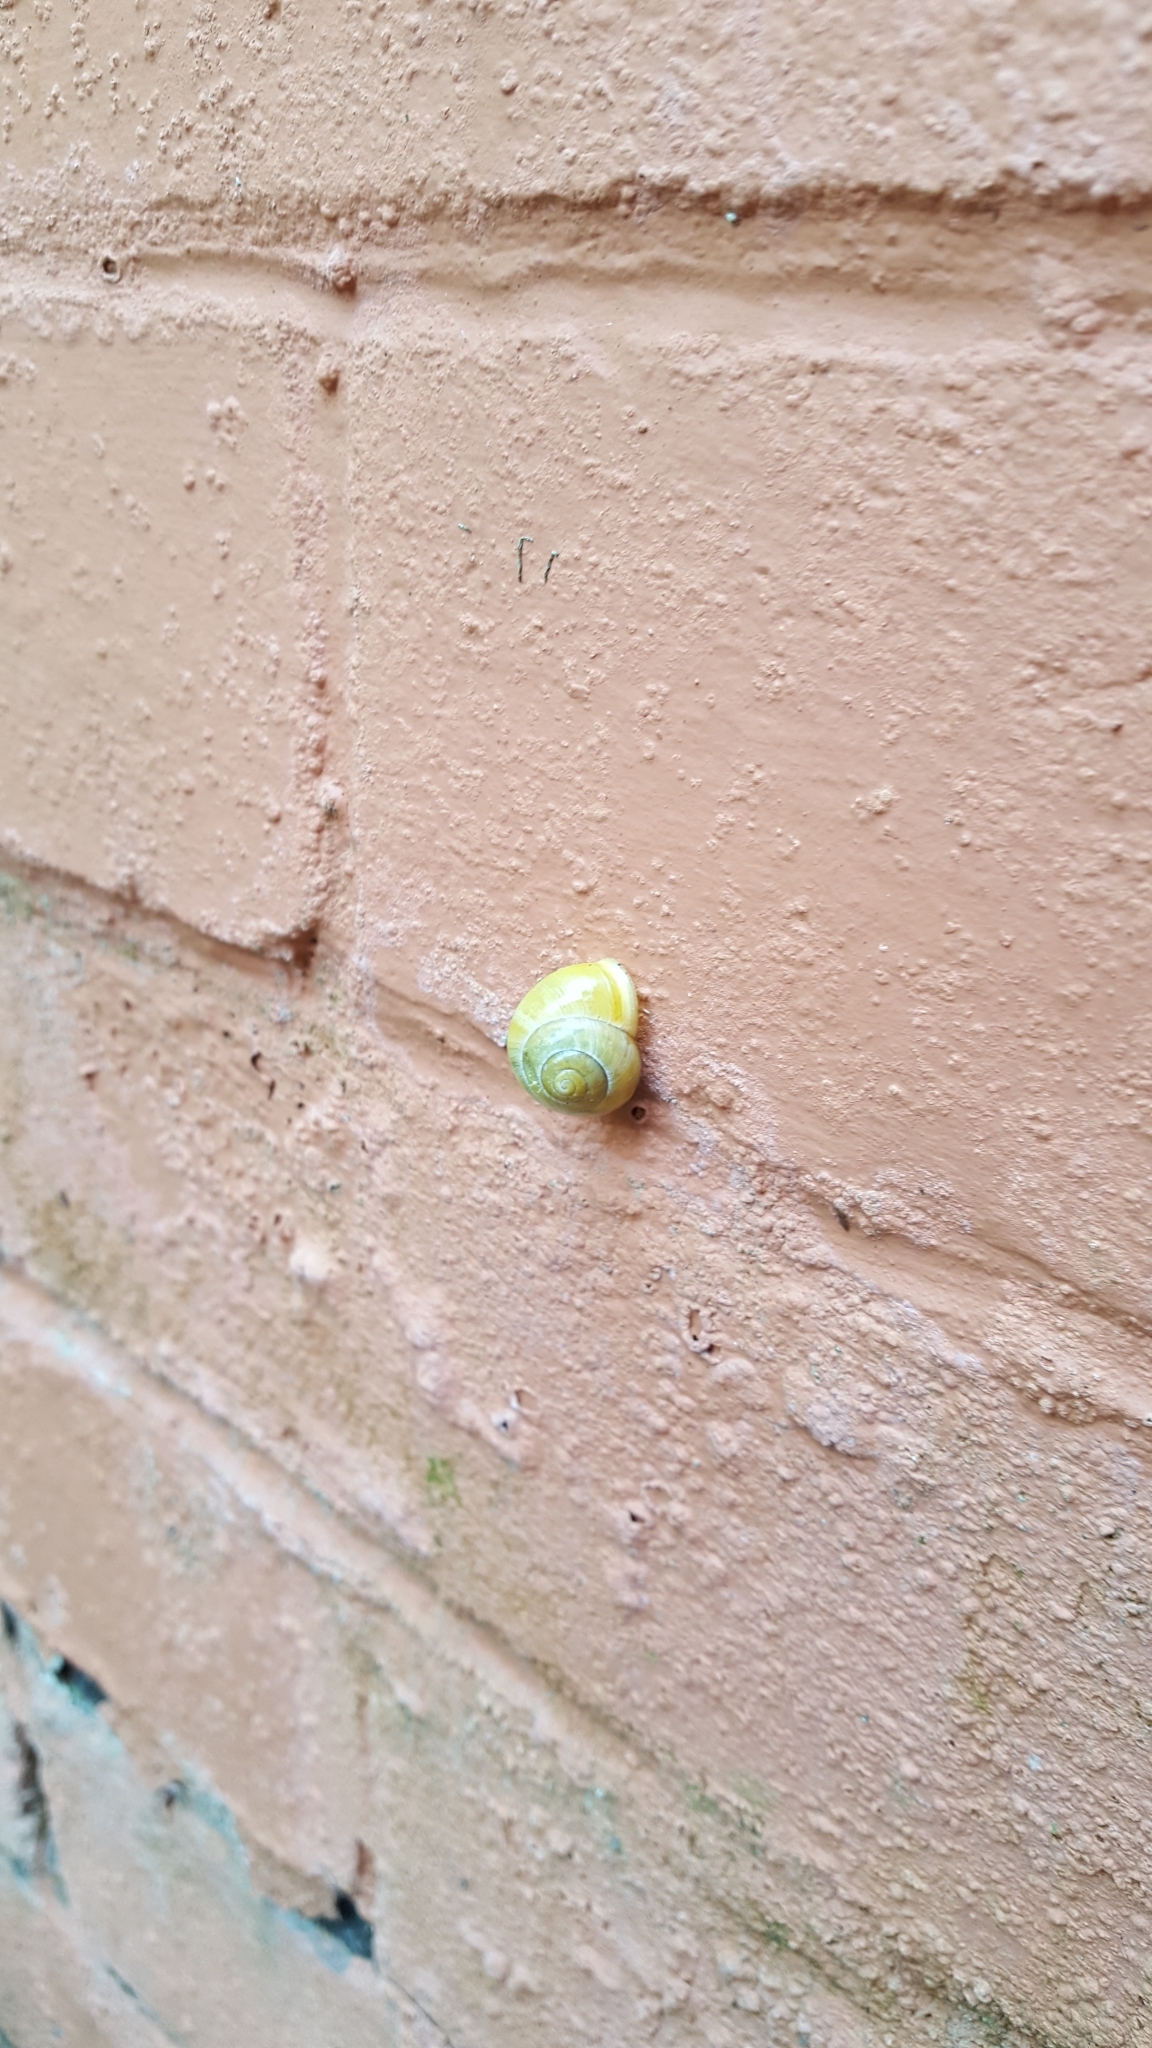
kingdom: Animalia
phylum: Mollusca
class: Gastropoda
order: Stylommatophora
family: Helicidae
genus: Cepaea
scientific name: Cepaea hortensis
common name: White-lip gardensnail
